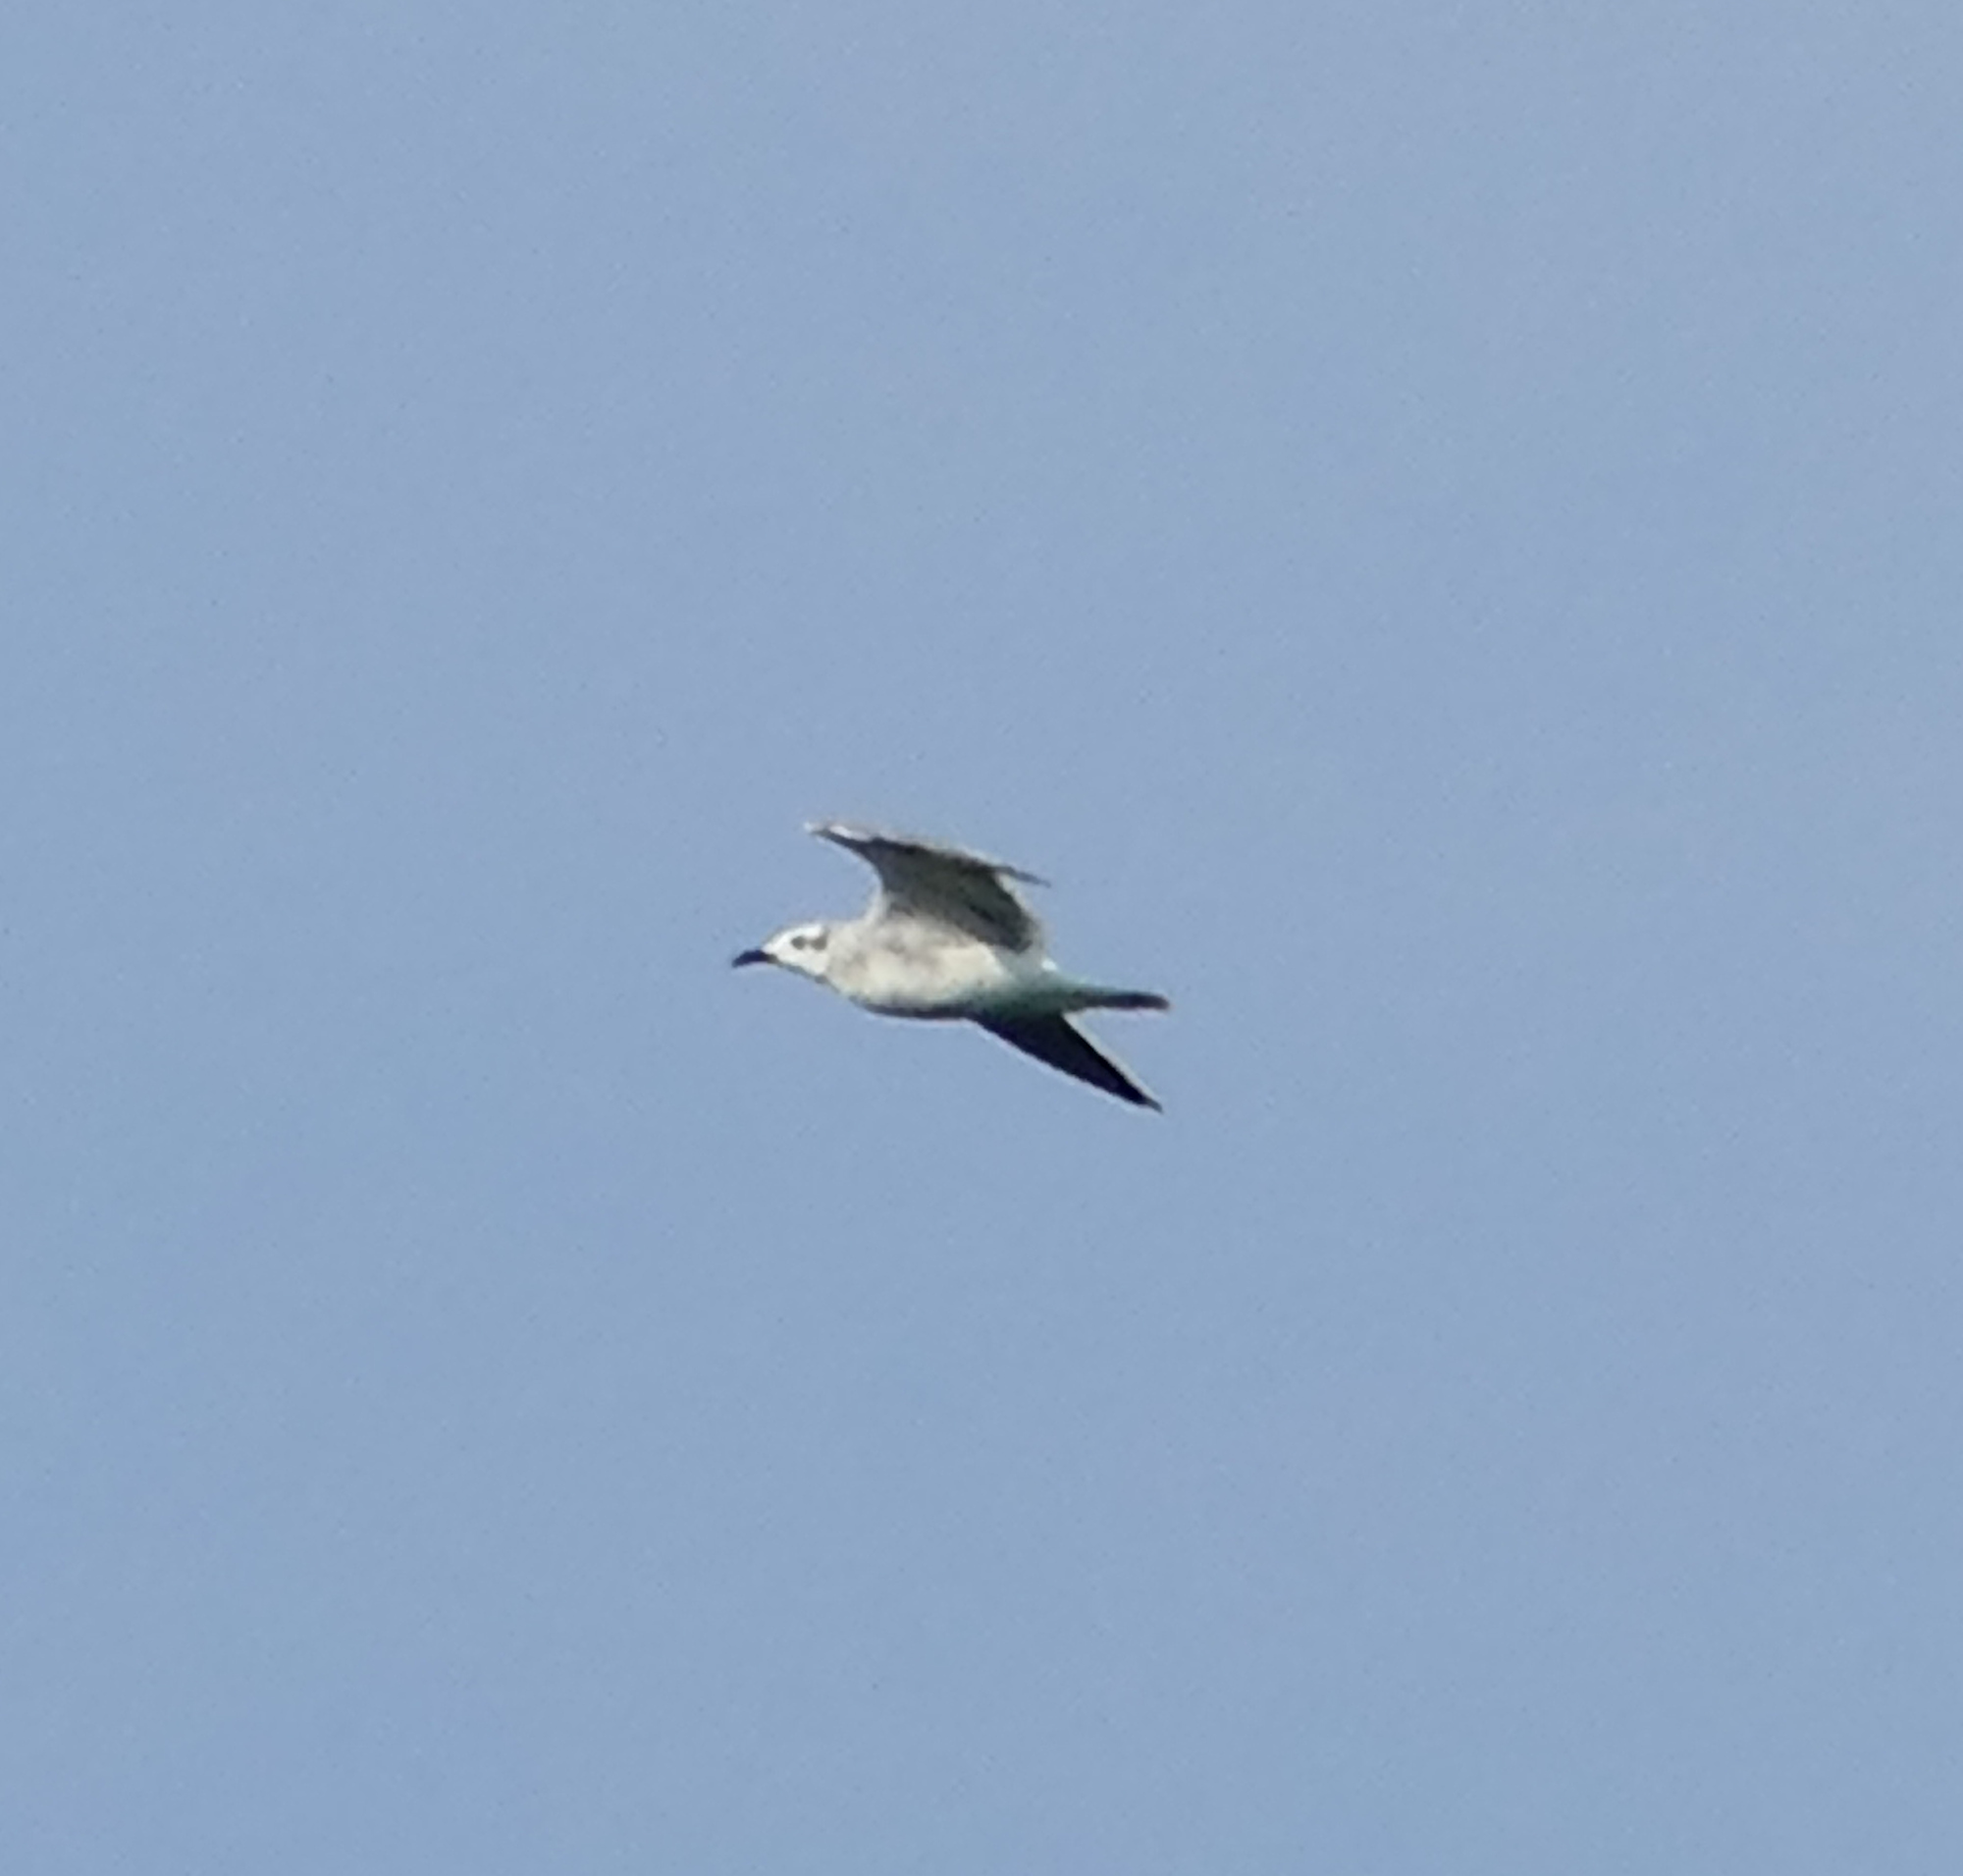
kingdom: Animalia
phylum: Chordata
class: Aves
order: Charadriiformes
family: Laridae
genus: Leucophaeus
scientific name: Leucophaeus atricilla
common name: Laughing gull
